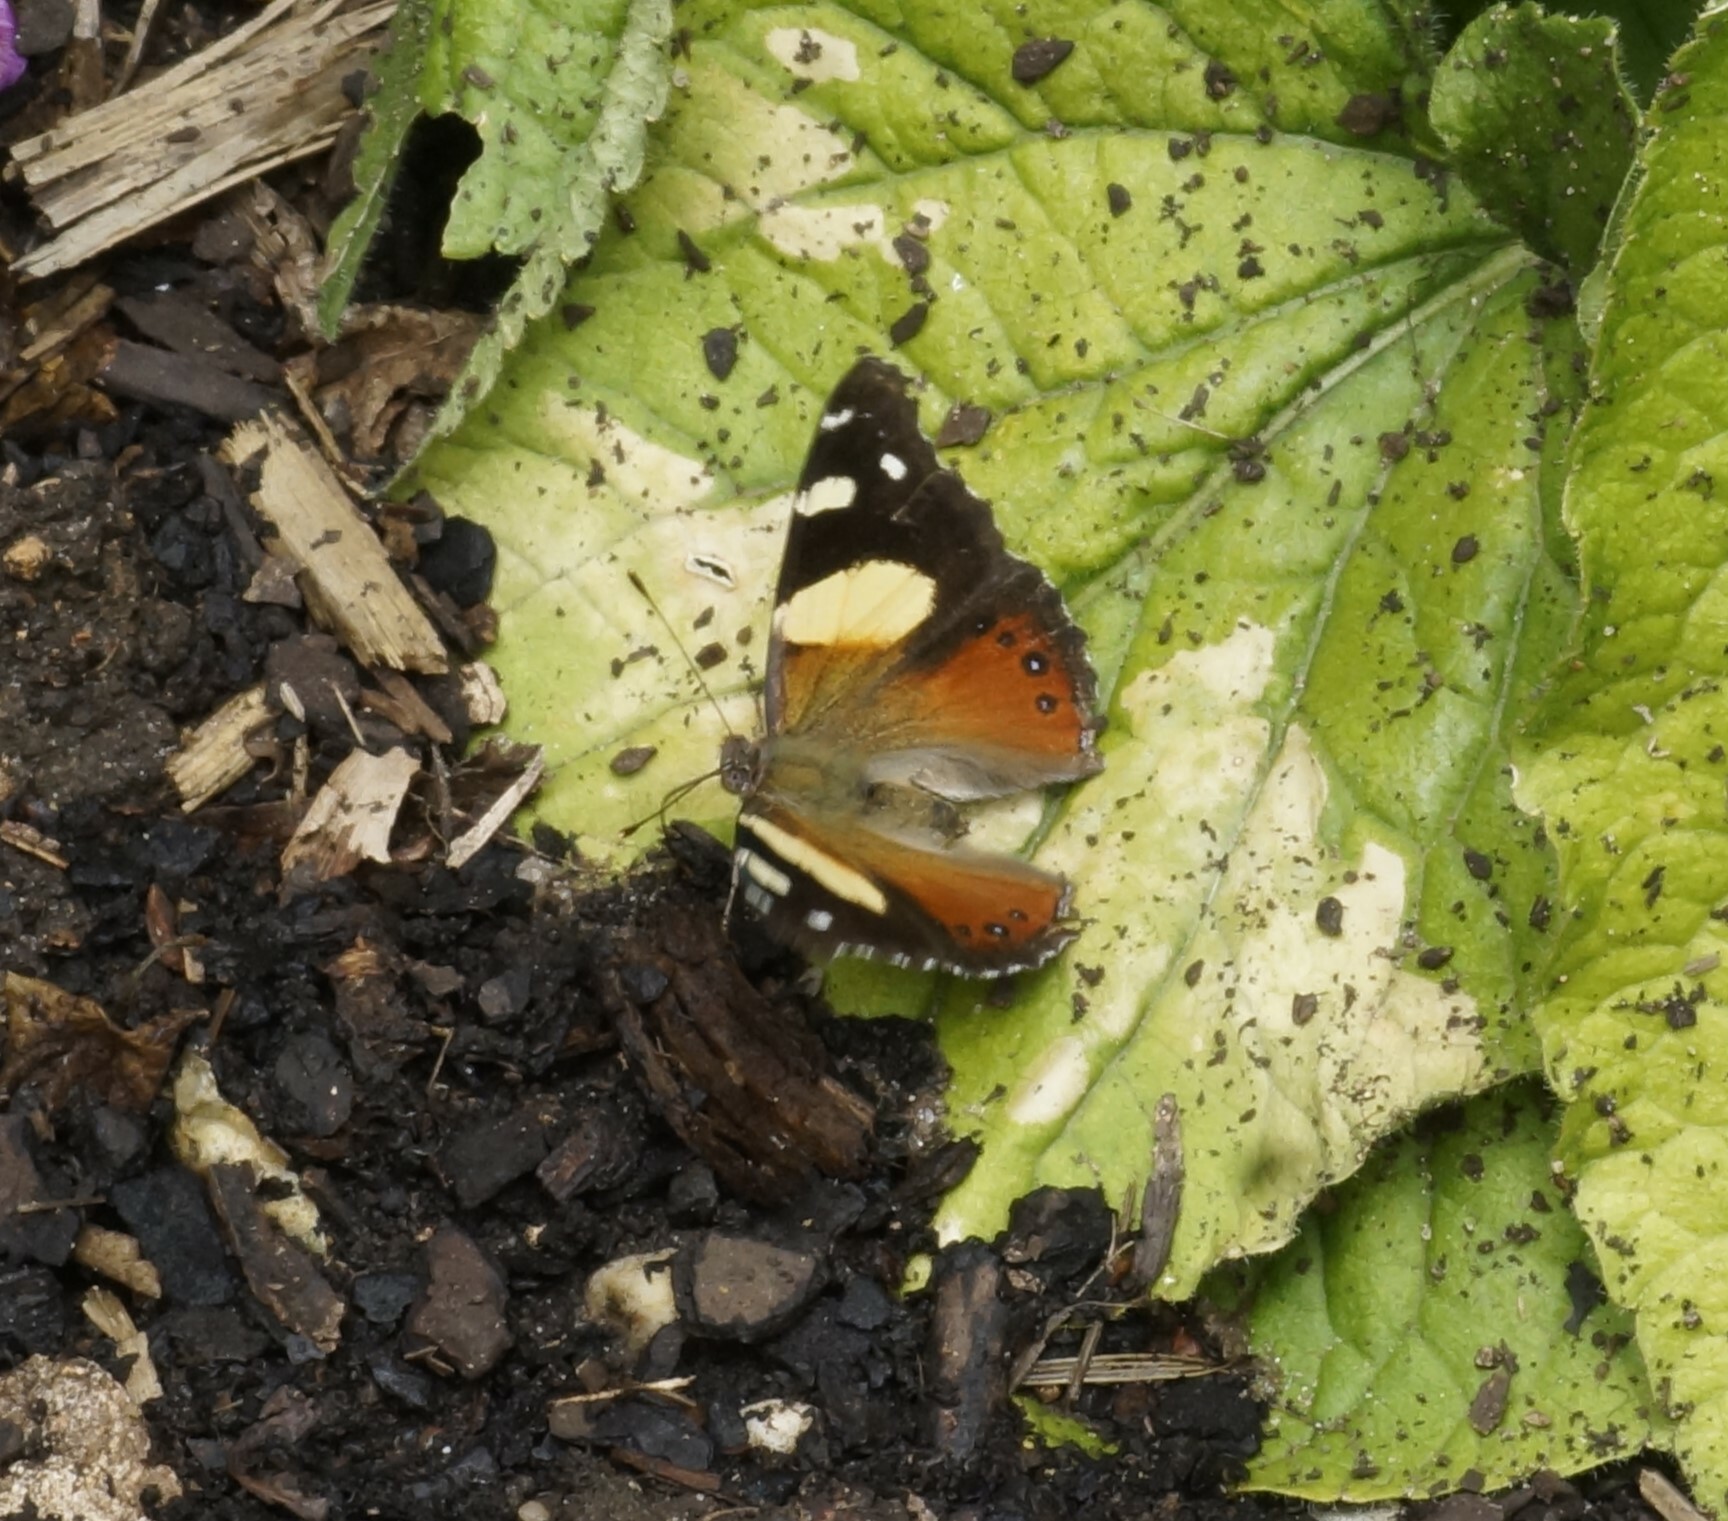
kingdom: Animalia
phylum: Arthropoda
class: Insecta
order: Lepidoptera
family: Nymphalidae
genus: Vanessa
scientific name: Vanessa itea
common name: Yellow admiral
